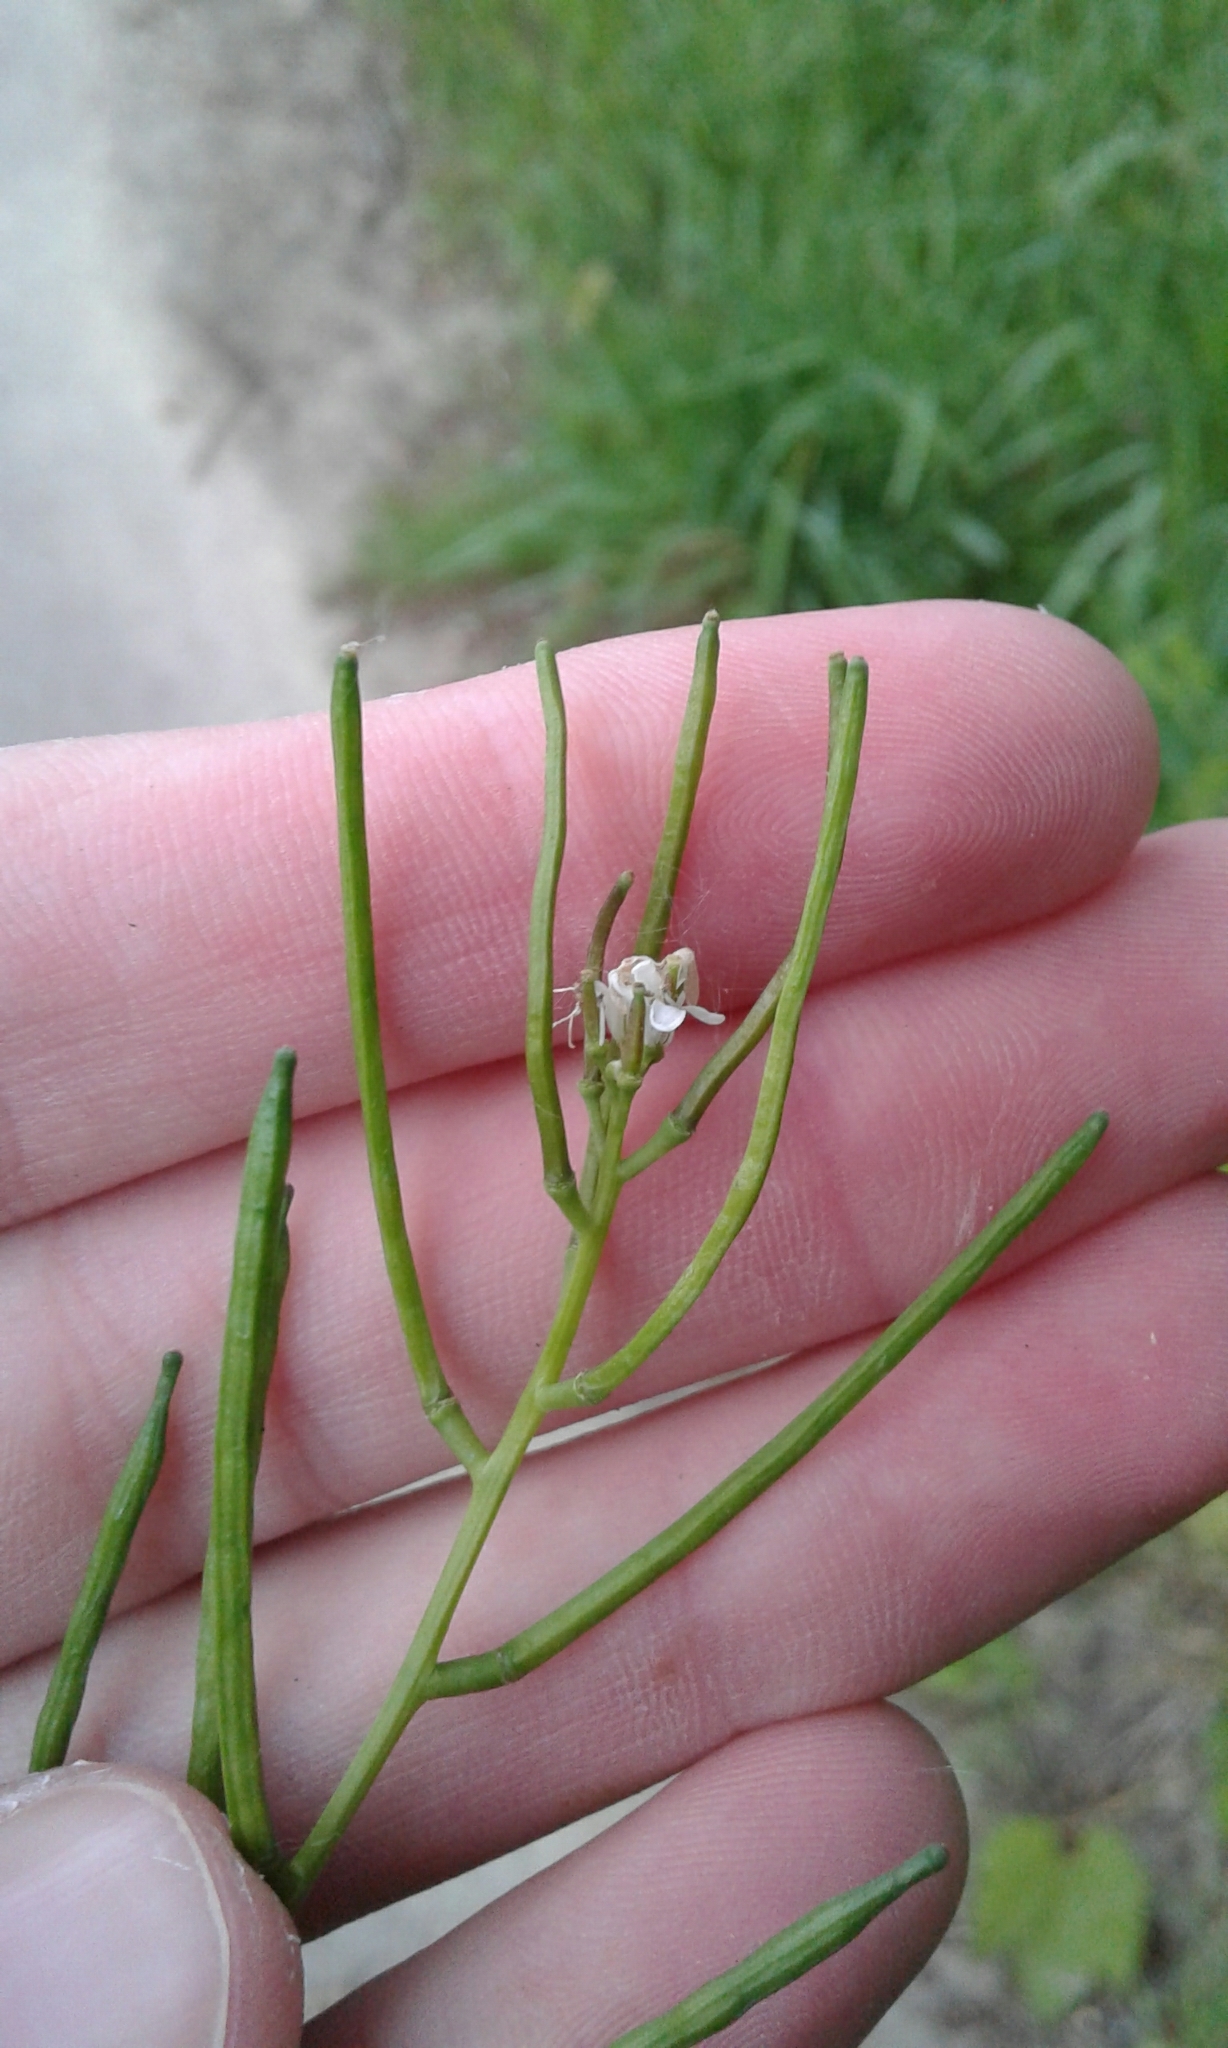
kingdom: Plantae
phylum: Tracheophyta
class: Magnoliopsida
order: Brassicales
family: Brassicaceae
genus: Alliaria
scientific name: Alliaria petiolata
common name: Garlic mustard
